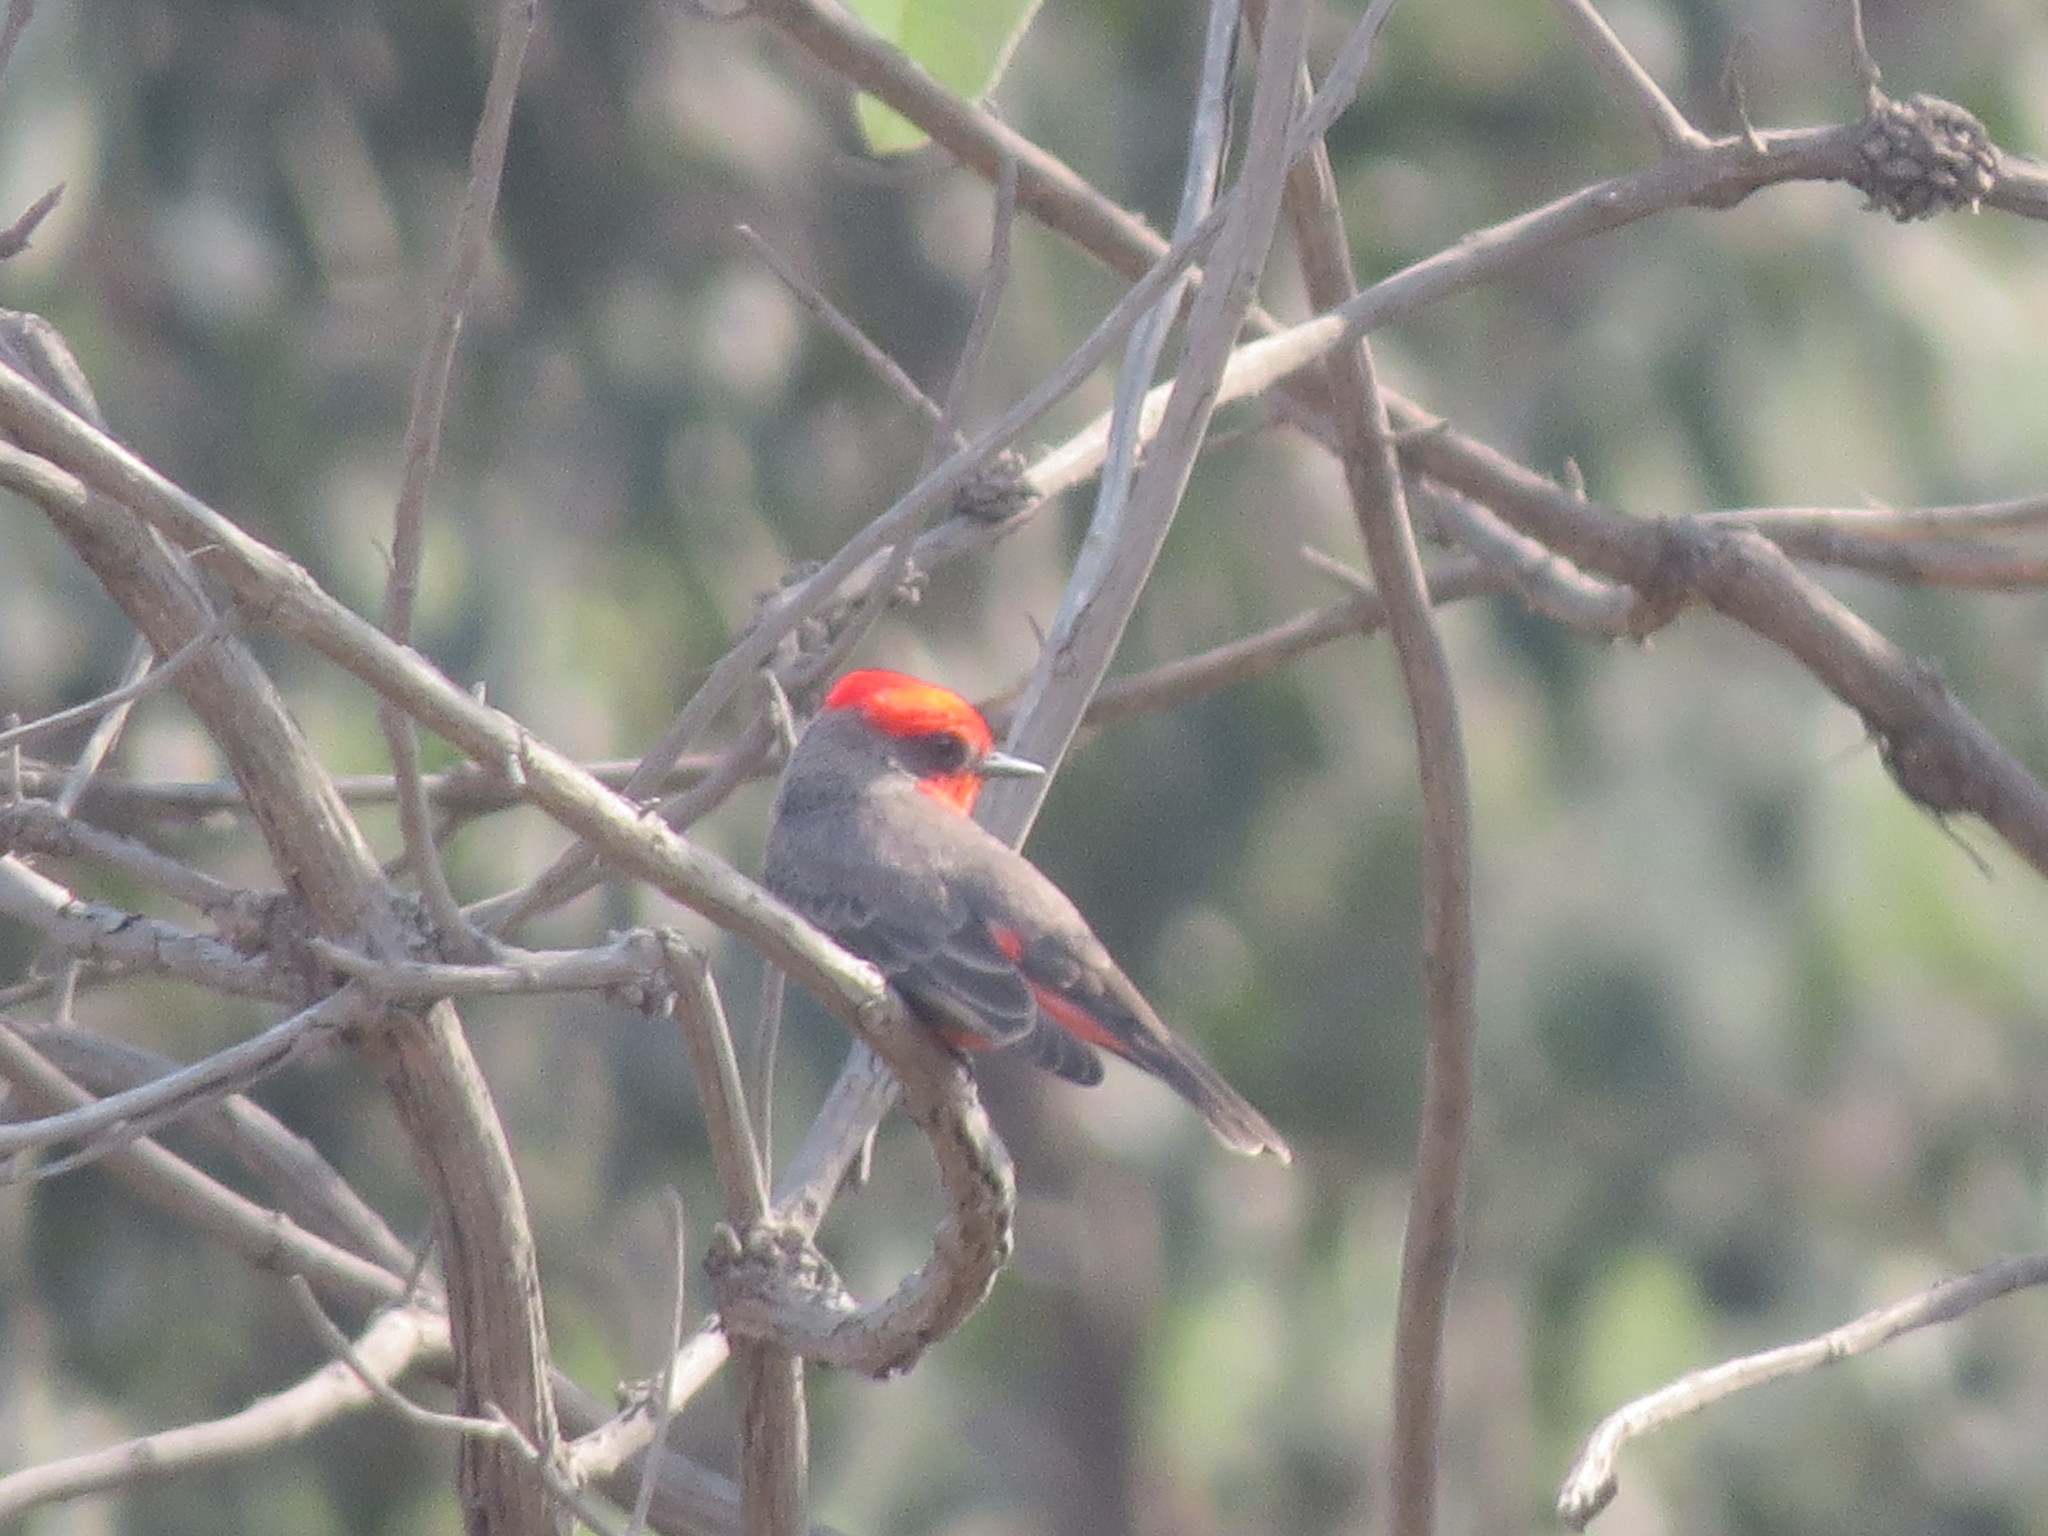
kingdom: Animalia
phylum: Chordata
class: Aves
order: Passeriformes
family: Tyrannidae
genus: Pyrocephalus
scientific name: Pyrocephalus rubinus
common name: Vermilion flycatcher
